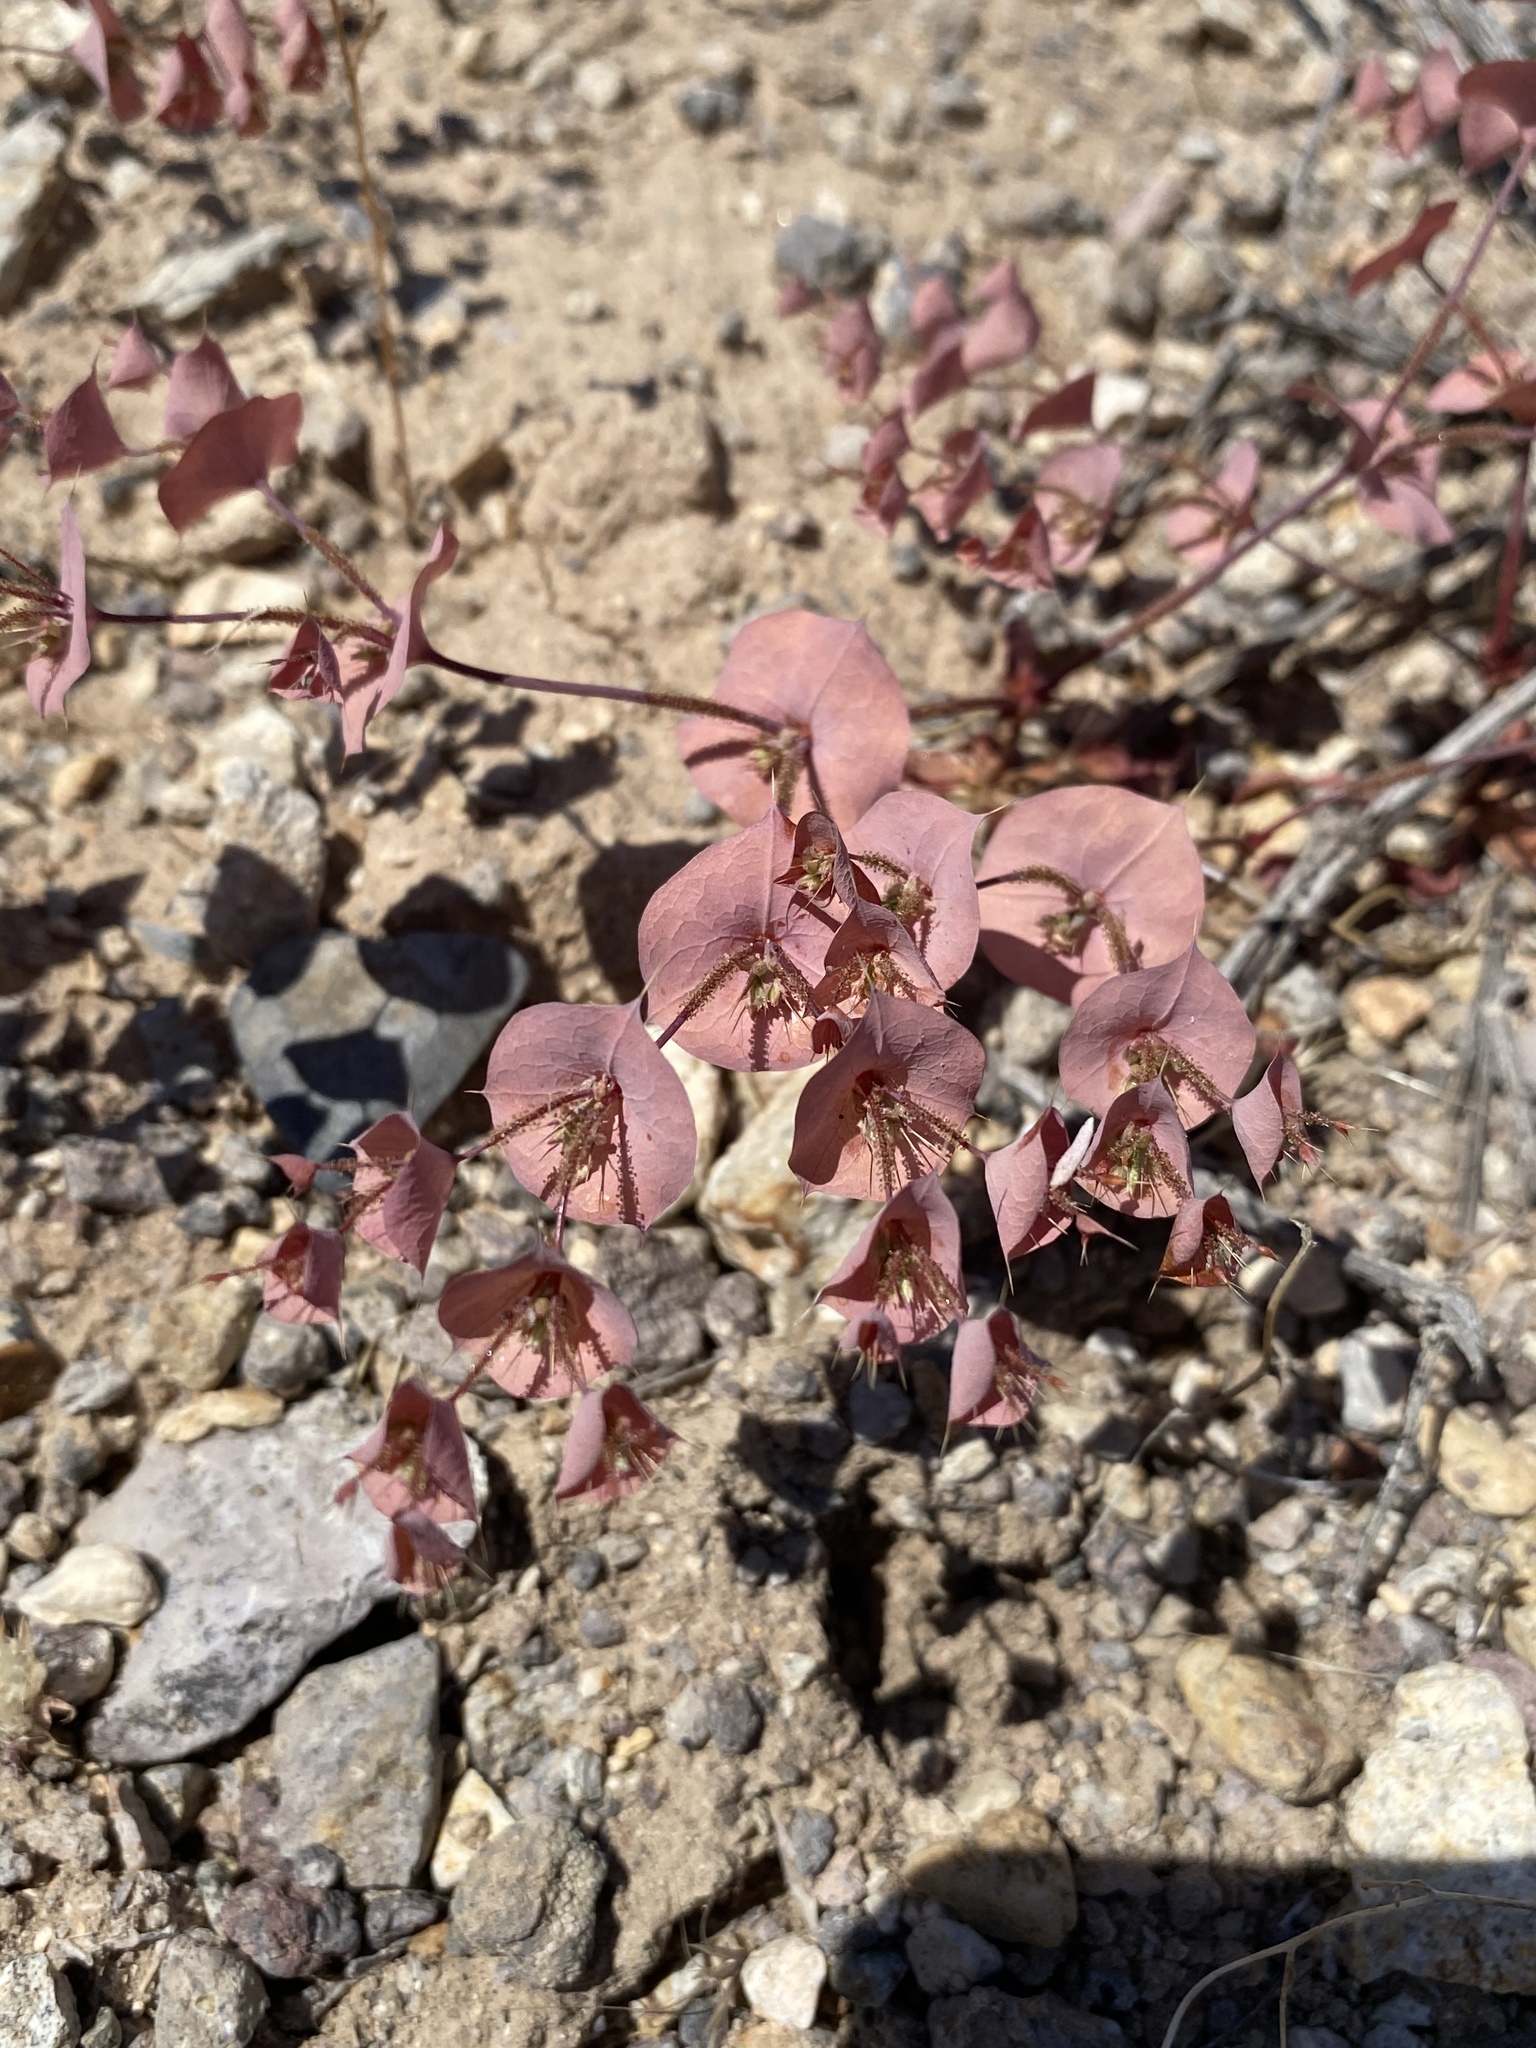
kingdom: Plantae
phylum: Tracheophyta
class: Magnoliopsida
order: Caryophyllales
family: Polygonaceae
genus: Oxytheca
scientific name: Oxytheca perfoliata
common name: Round-leaf puncturebract
